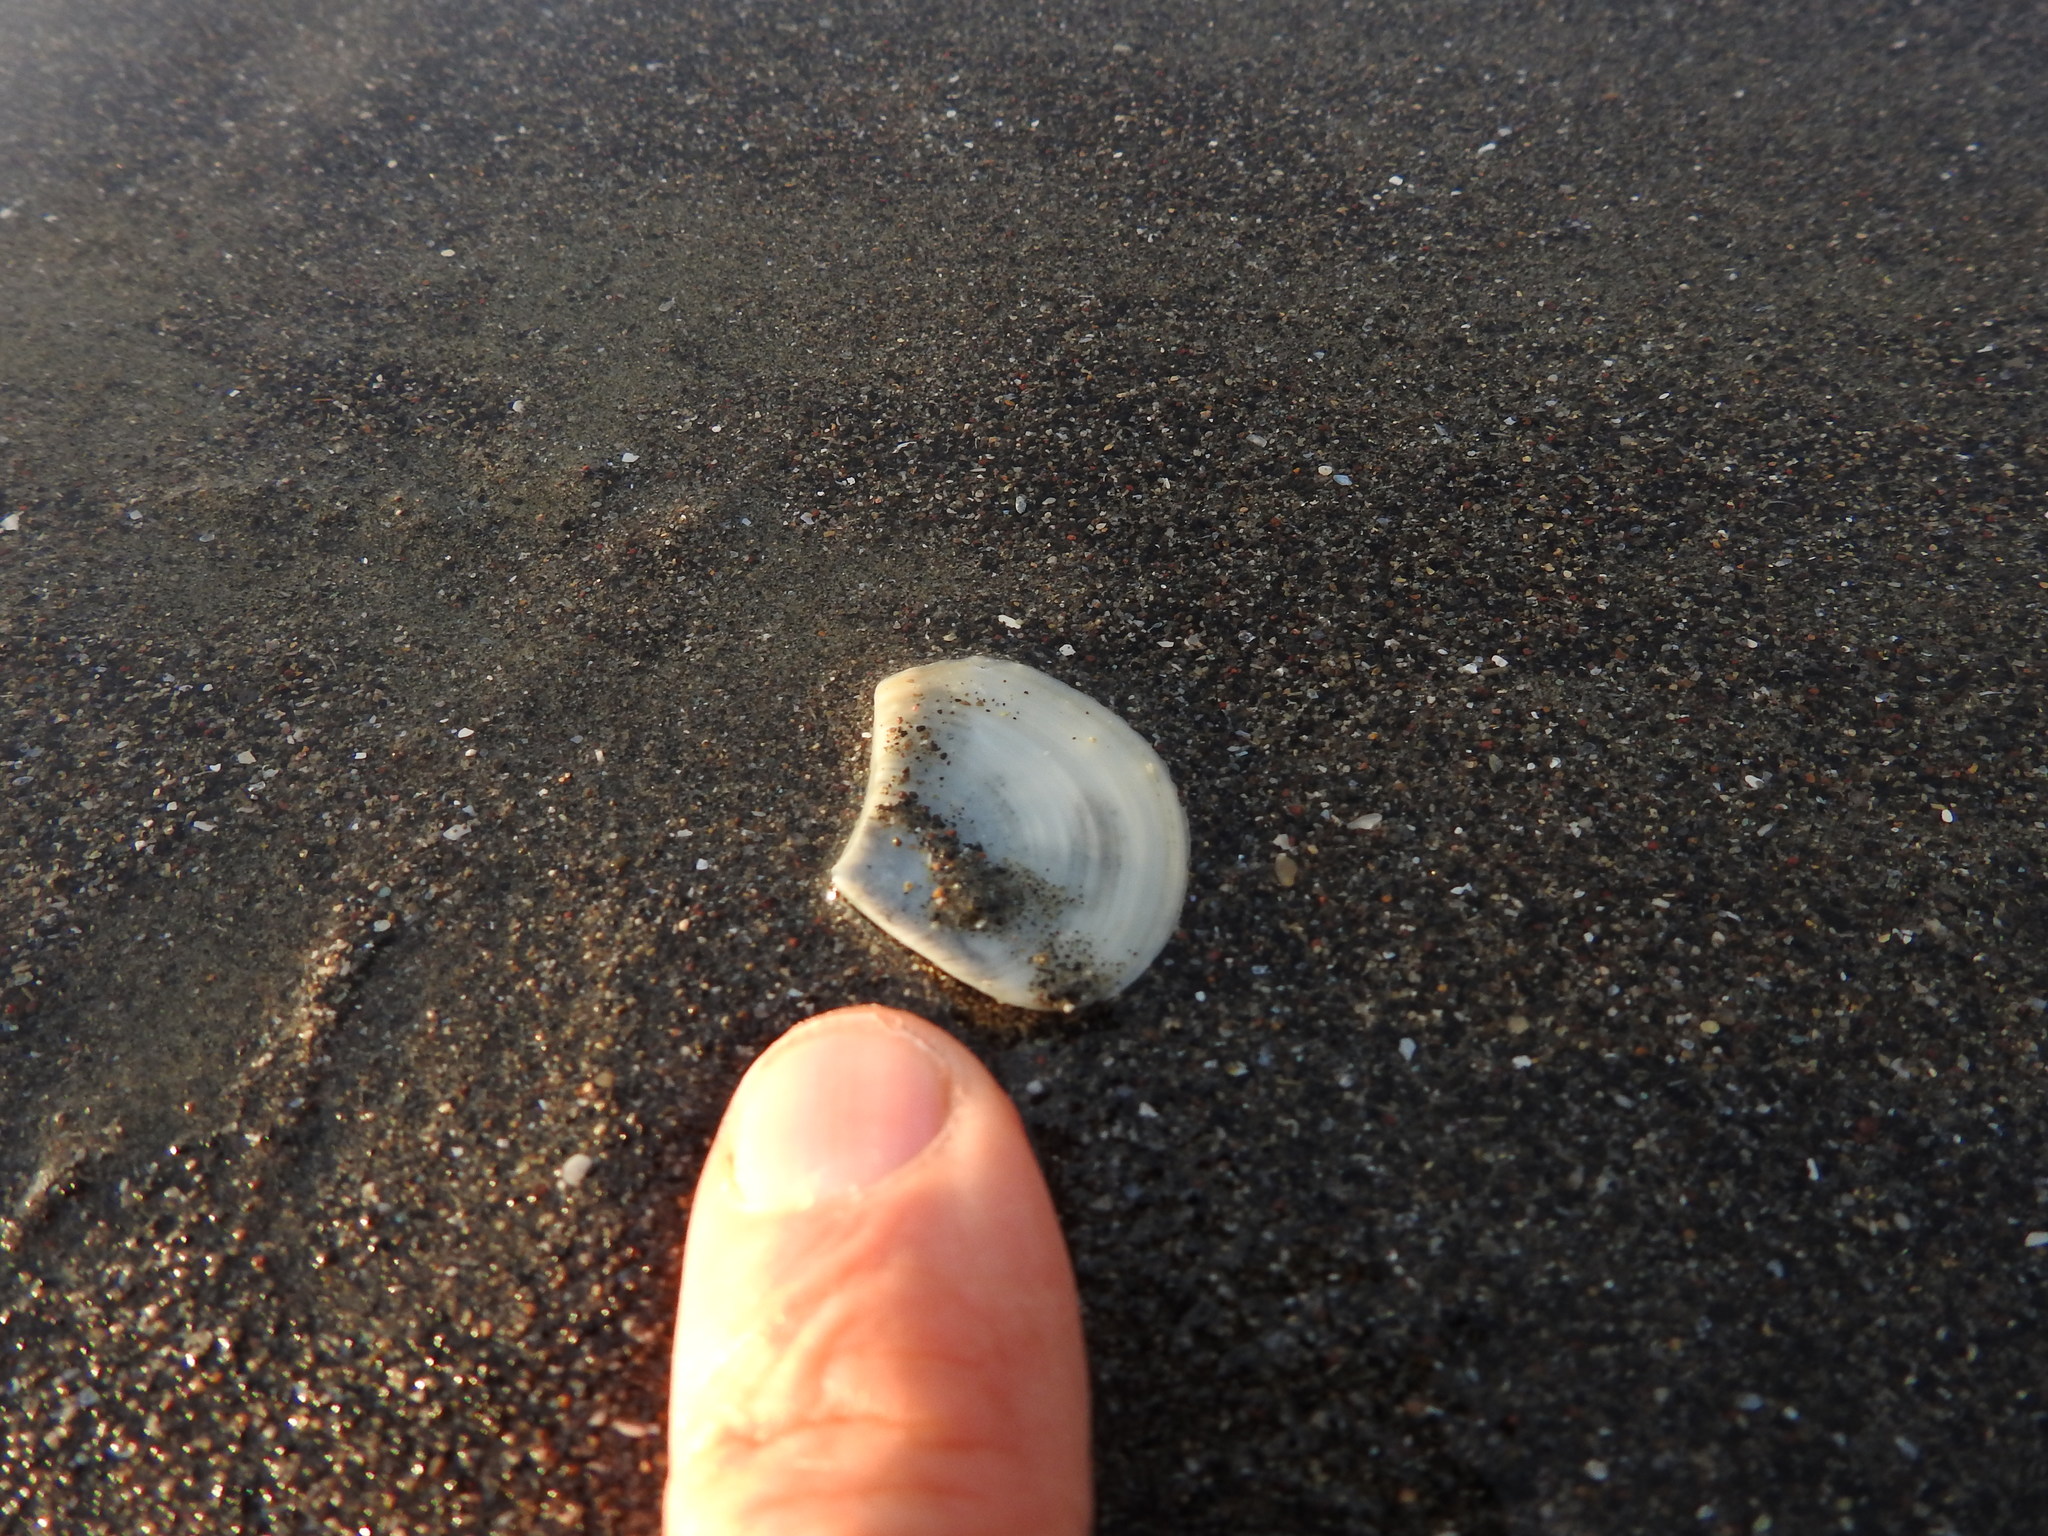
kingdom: Animalia
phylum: Mollusca
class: Bivalvia
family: Myochamidae
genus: Myadora
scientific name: Myadora striata
